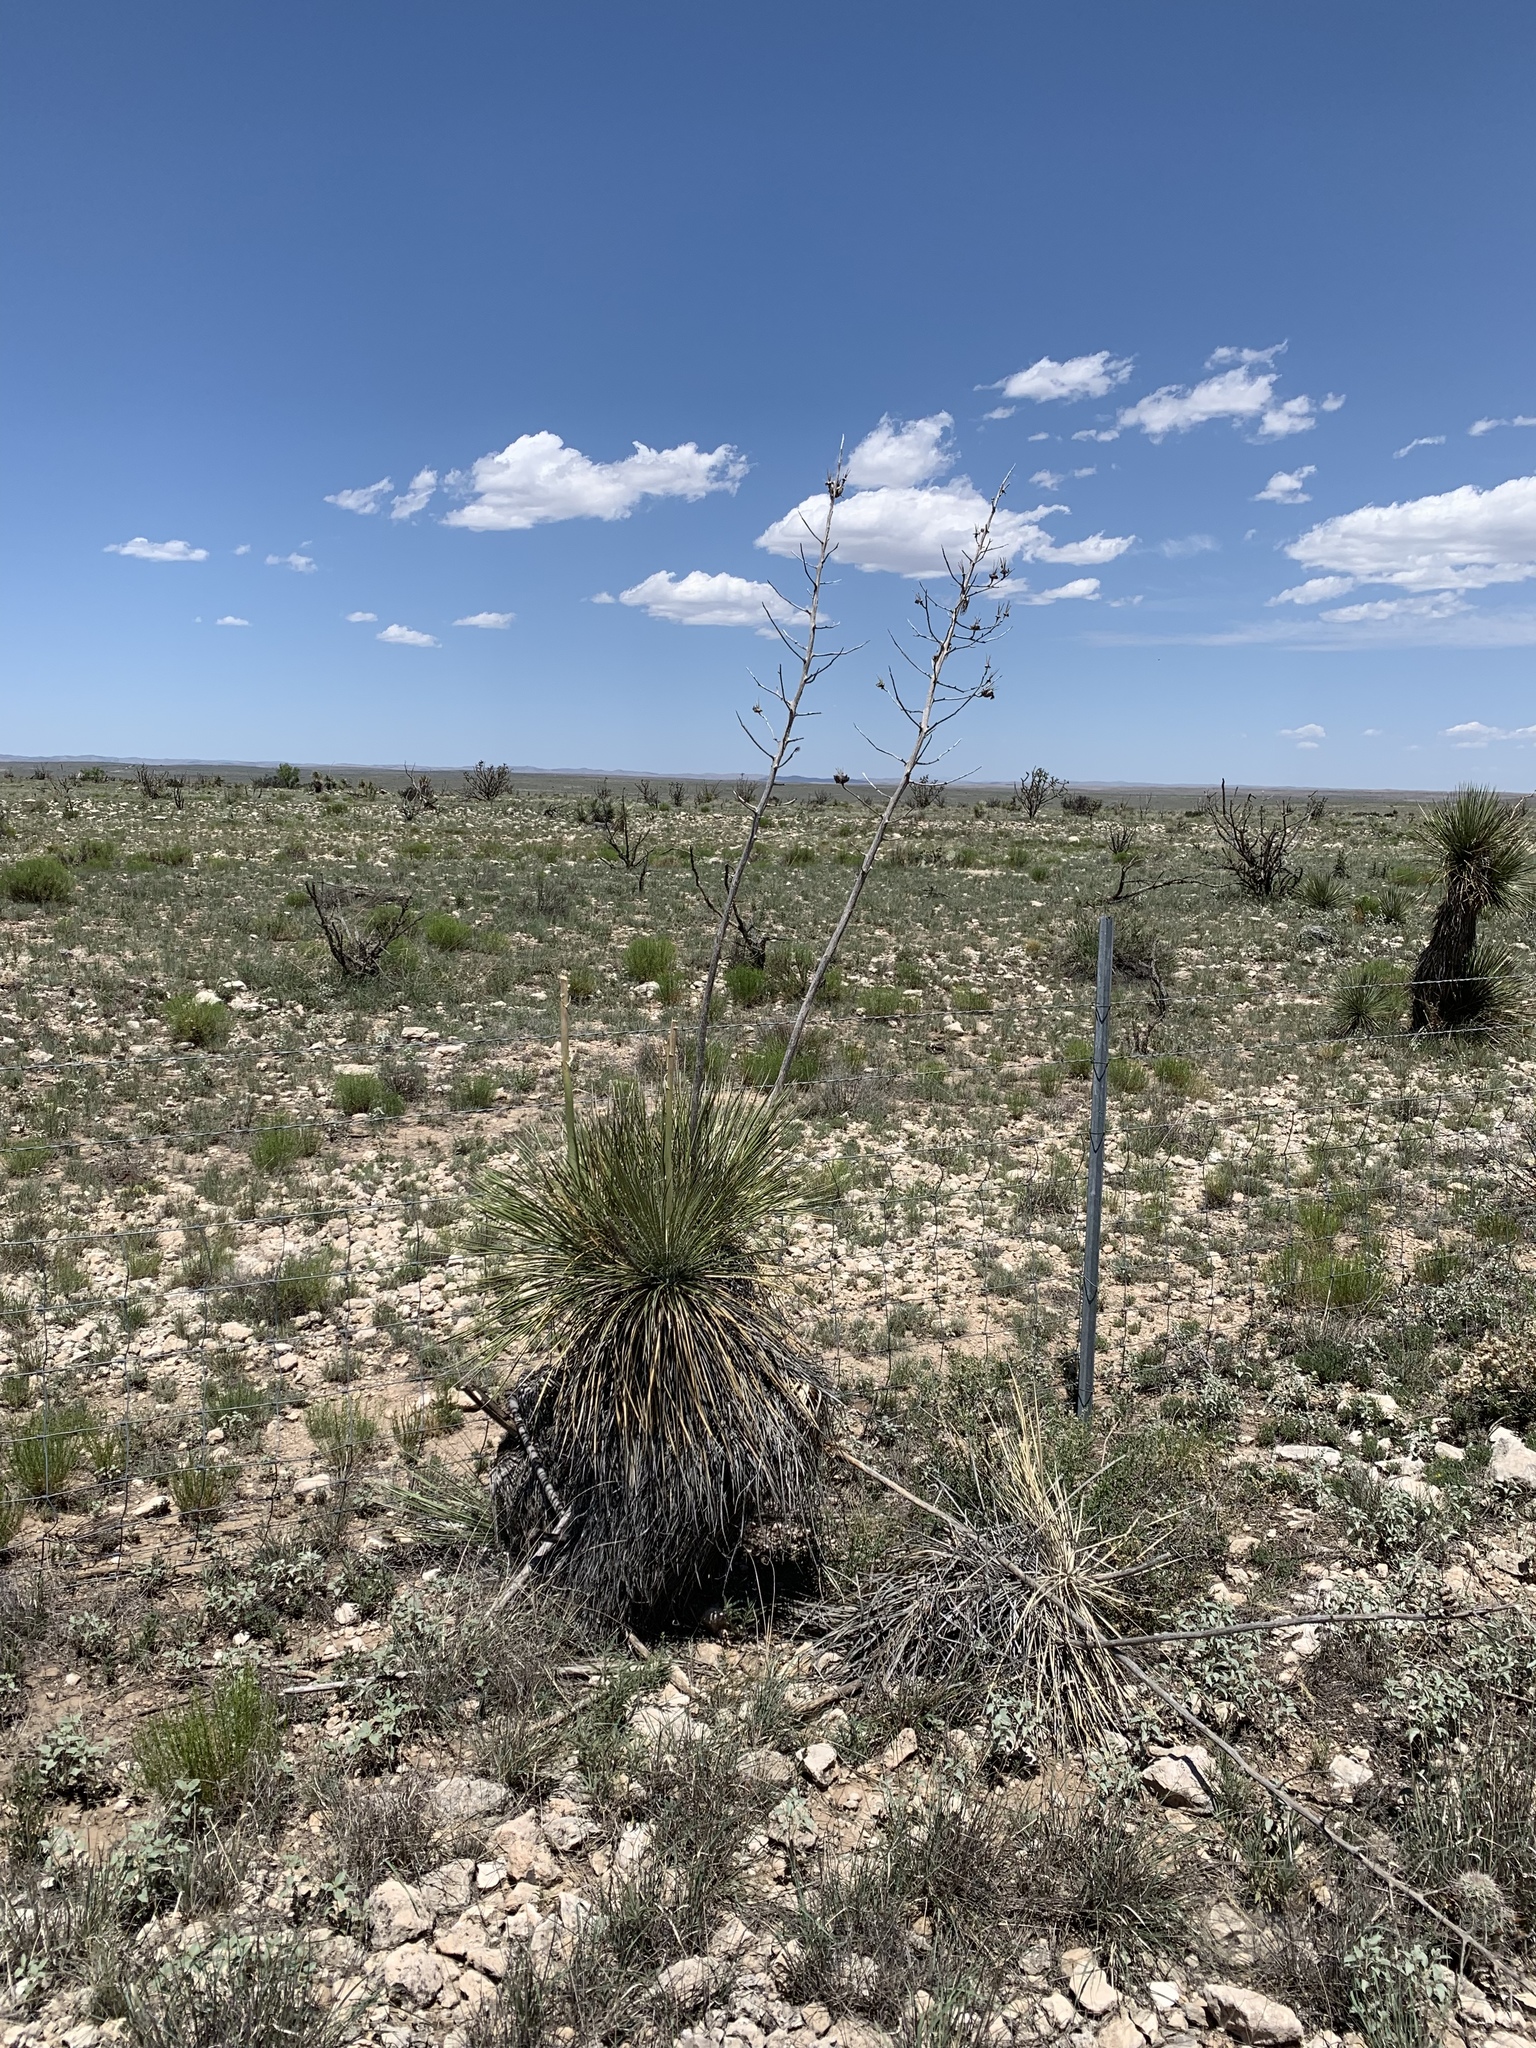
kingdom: Plantae
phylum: Tracheophyta
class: Liliopsida
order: Asparagales
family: Asparagaceae
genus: Yucca
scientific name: Yucca elata
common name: Palmella
